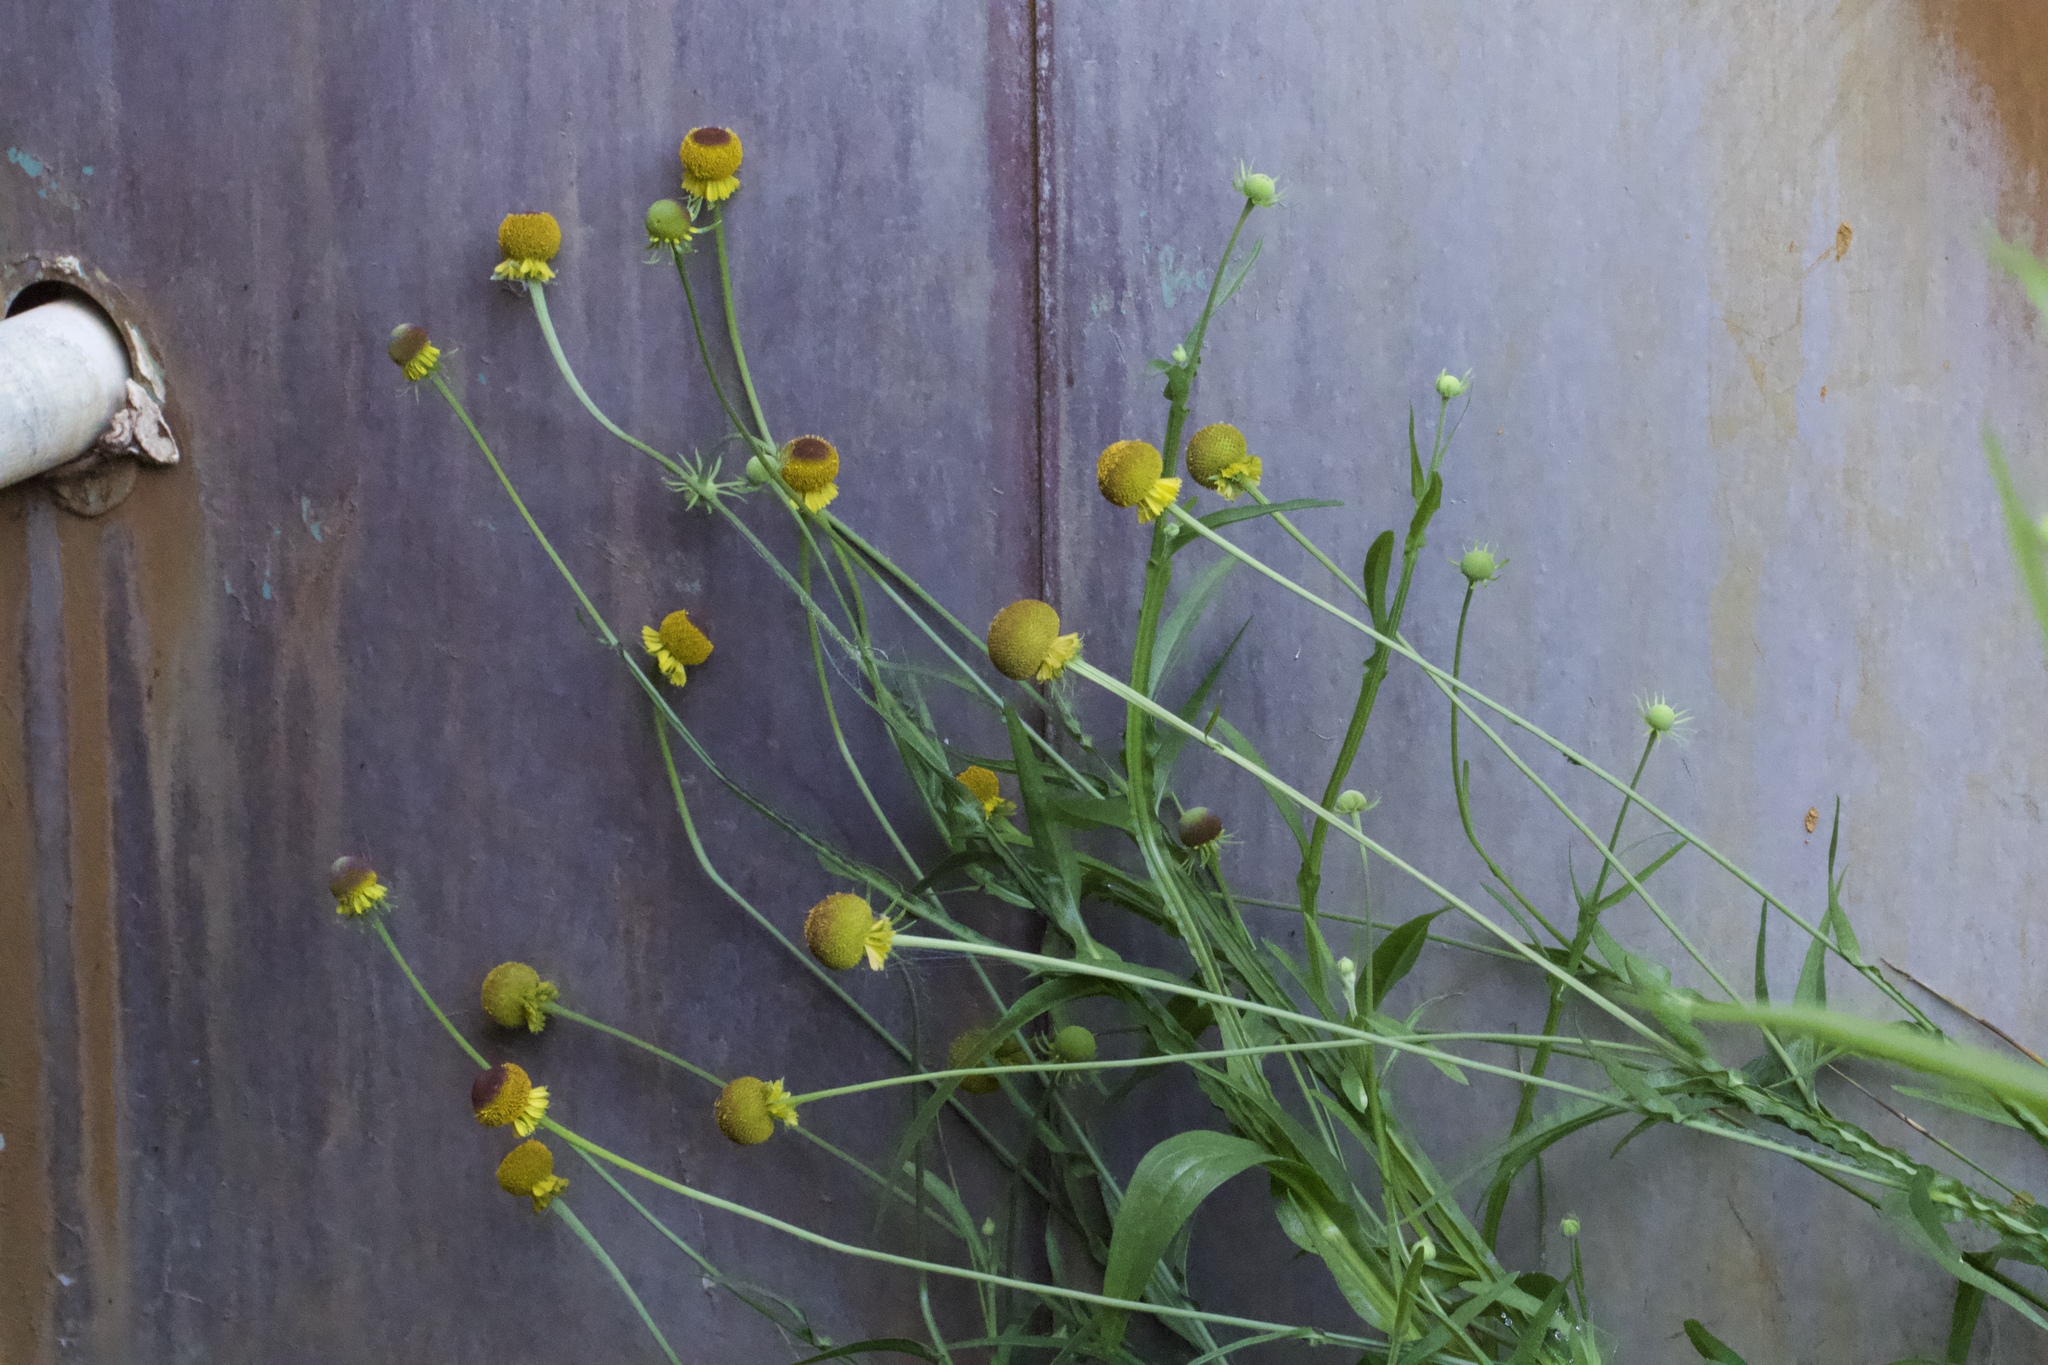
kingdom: Plantae
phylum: Tracheophyta
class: Magnoliopsida
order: Asterales
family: Asteraceae
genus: Helenium
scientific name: Helenium puberulum
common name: Sneezewort
